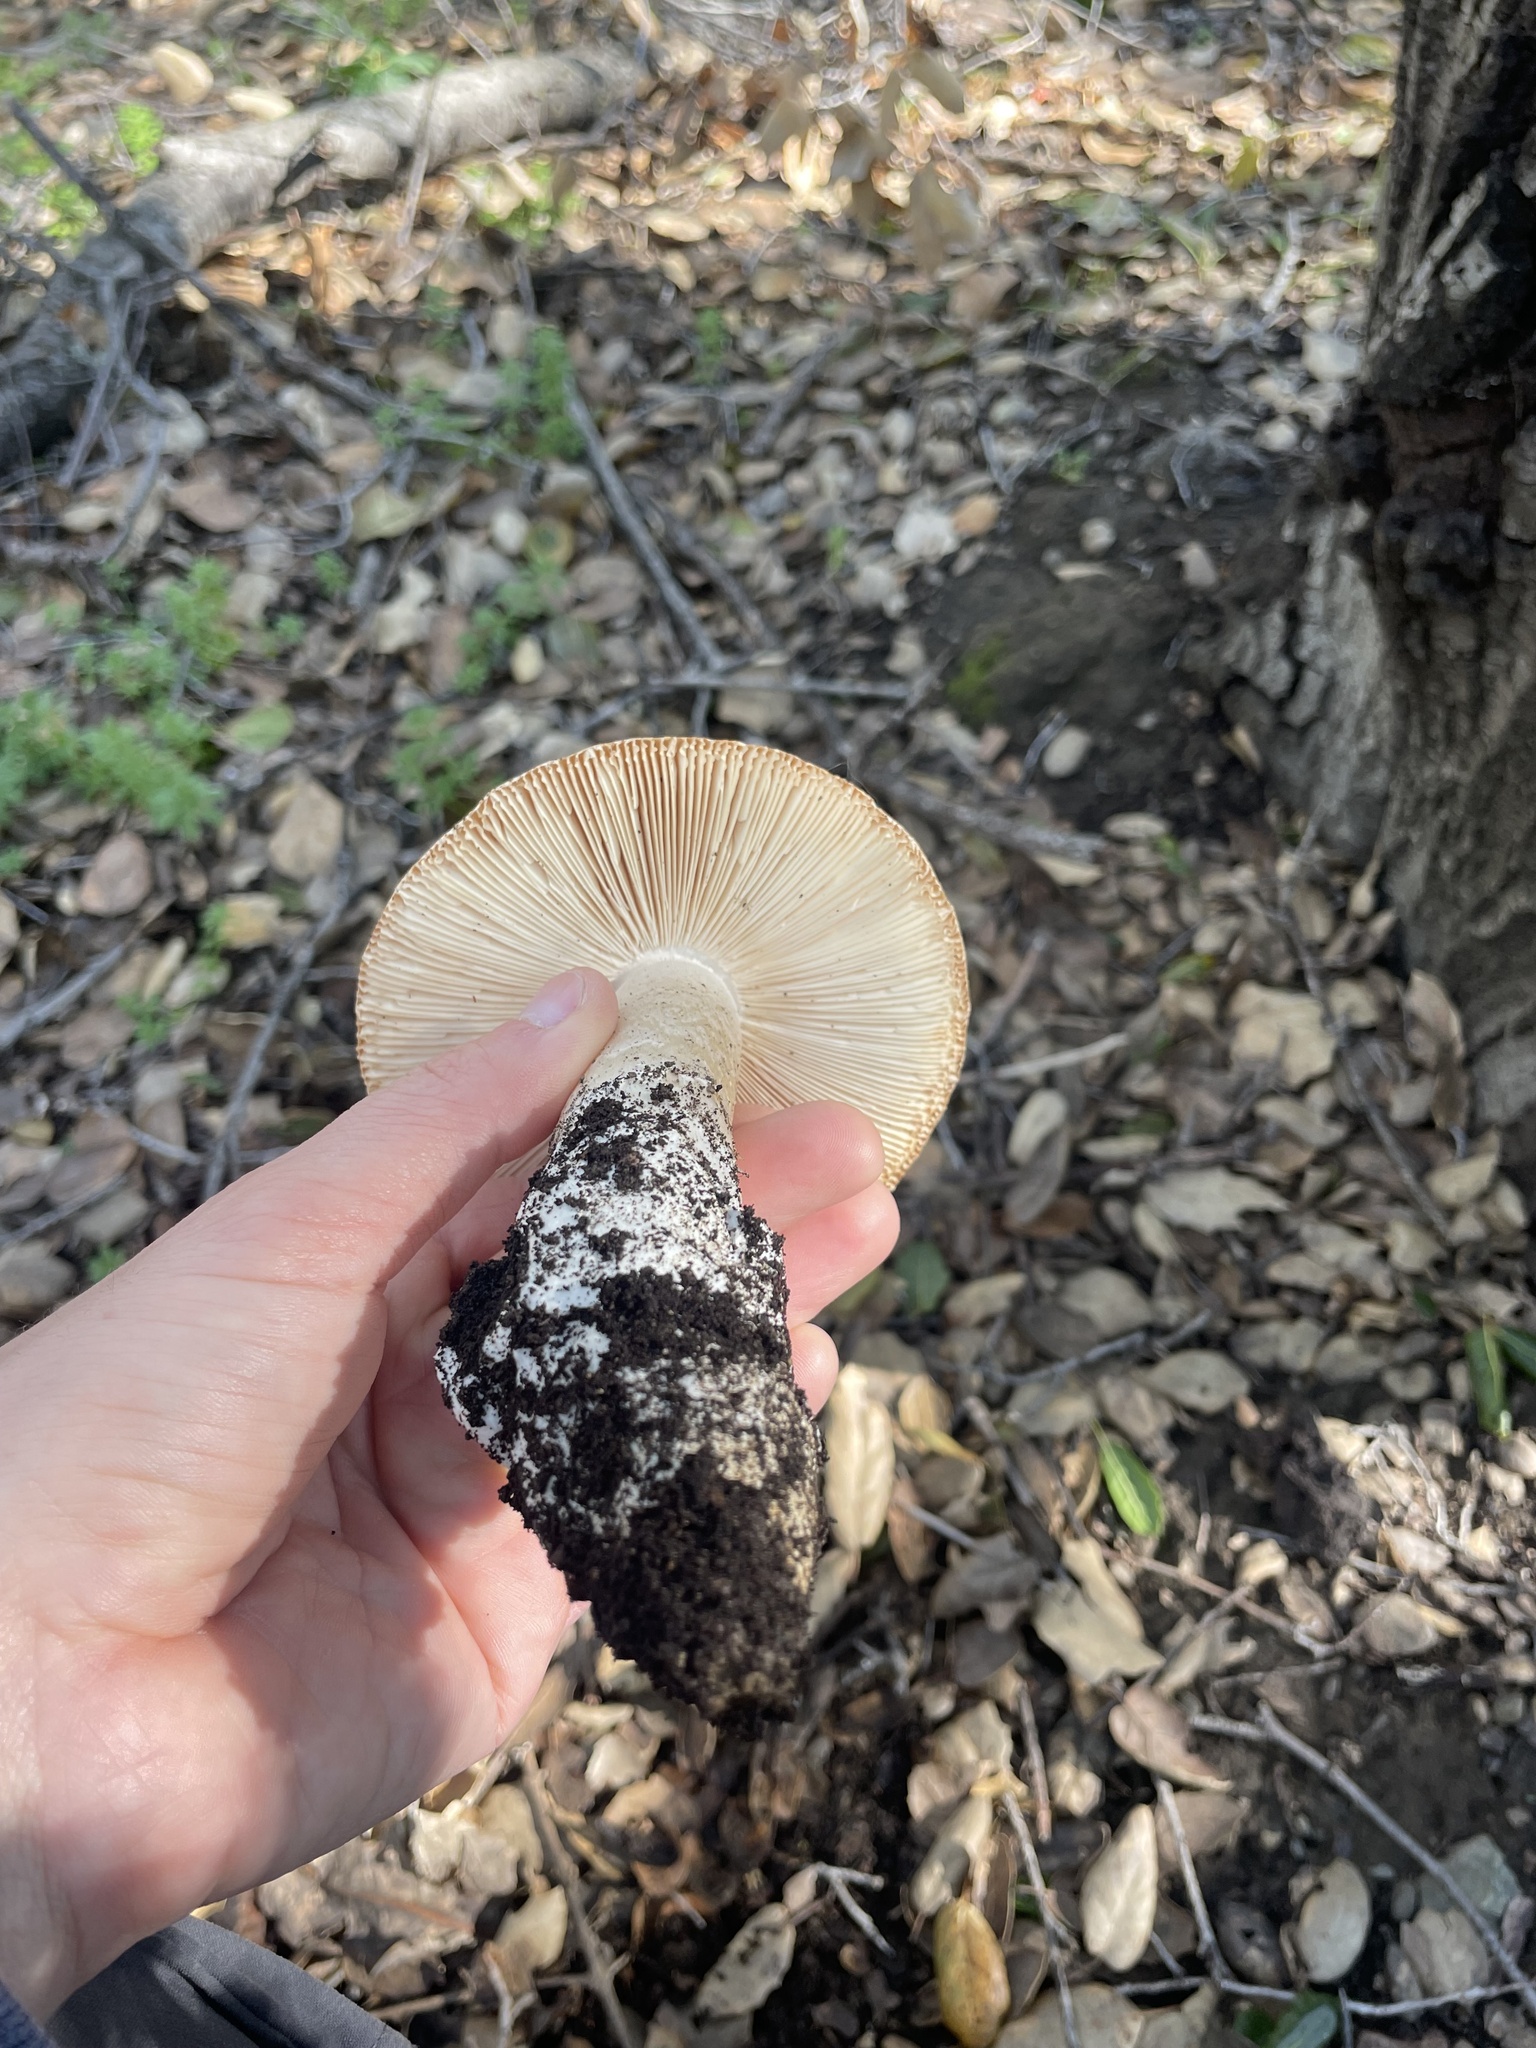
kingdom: Fungi
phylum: Basidiomycota
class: Agaricomycetes
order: Agaricales
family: Amanitaceae
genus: Amanita
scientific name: Amanita velosa
